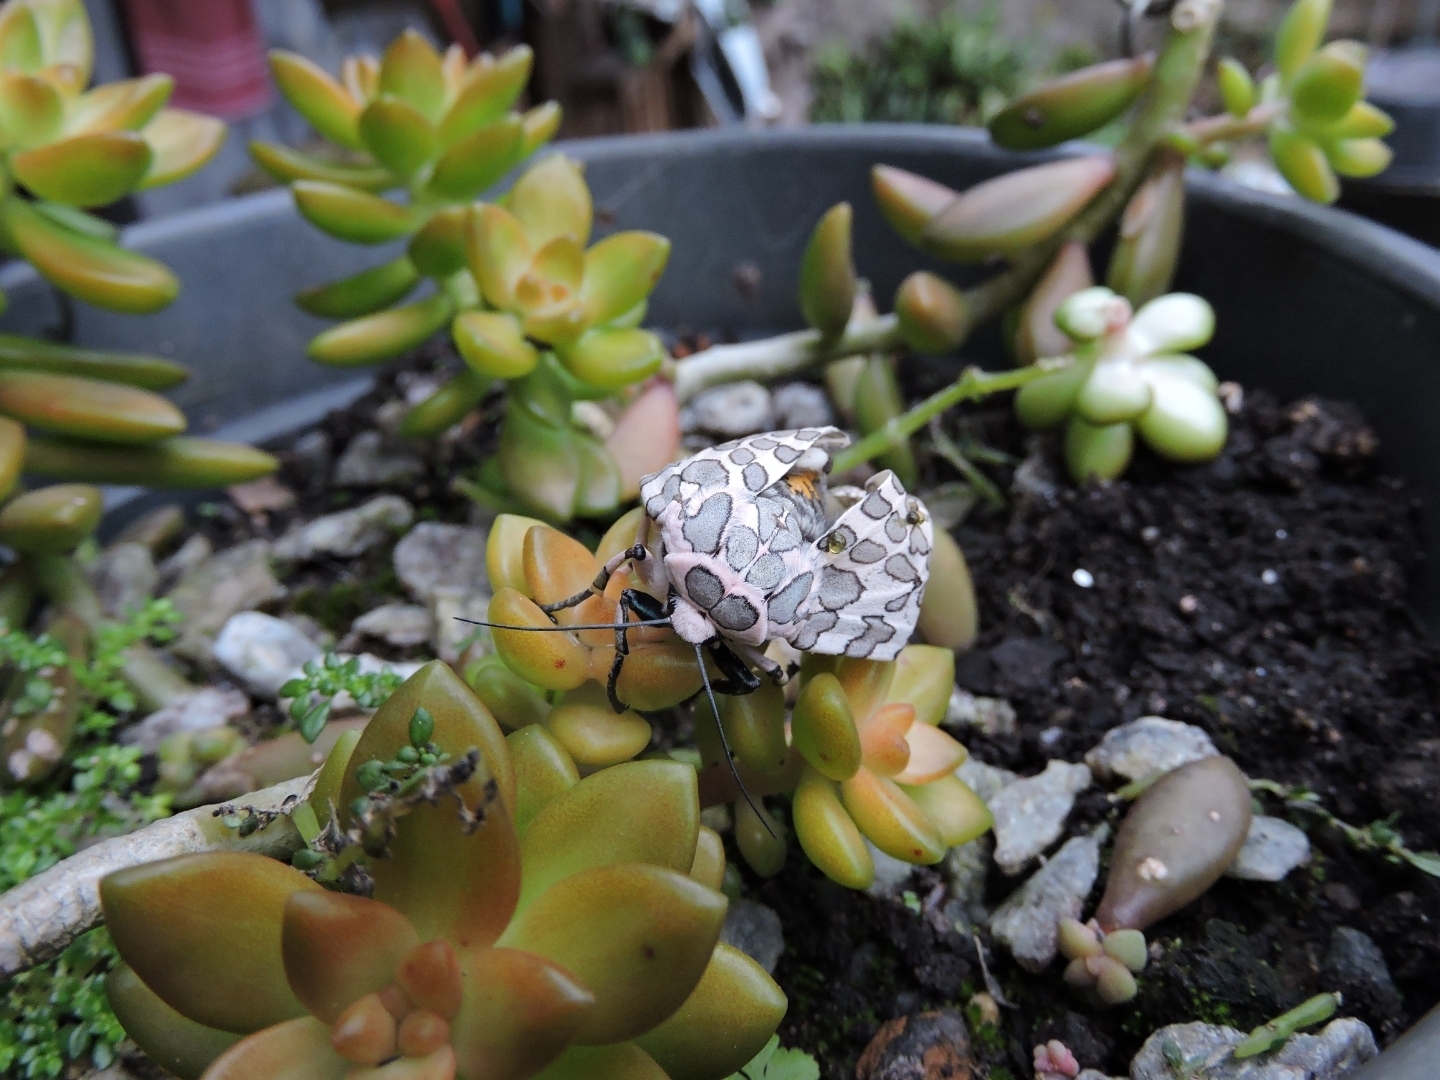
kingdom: Animalia
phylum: Arthropoda
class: Insecta
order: Lepidoptera
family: Erebidae
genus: Hypercompe
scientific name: Hypercompe abdominalis
